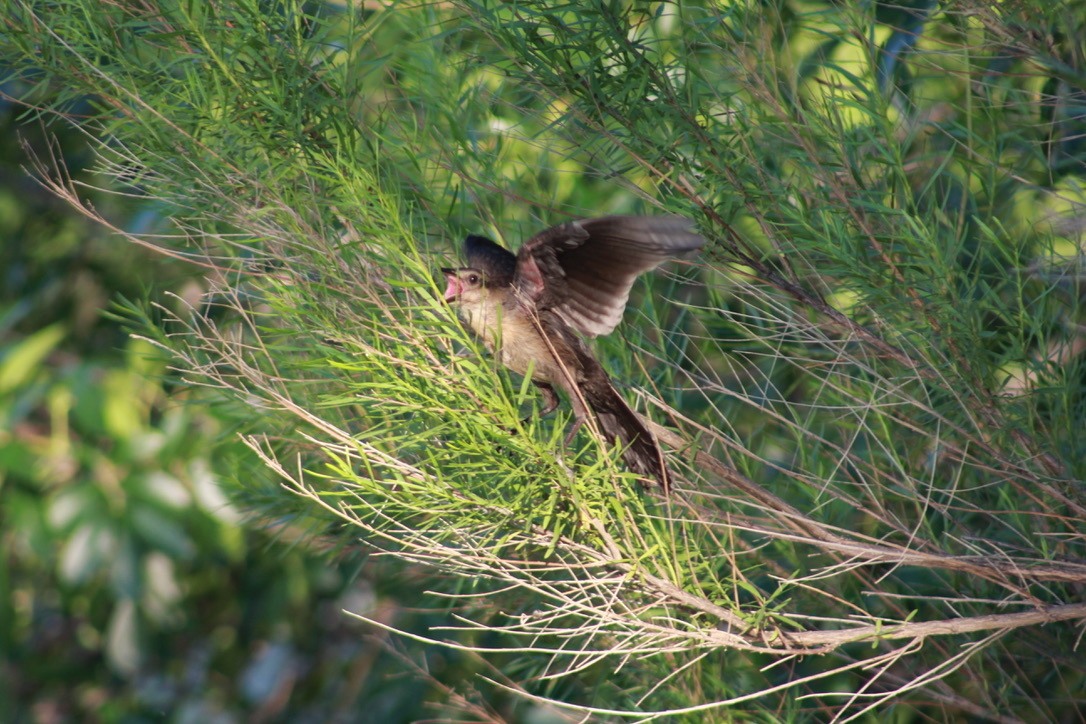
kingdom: Animalia
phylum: Chordata
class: Aves
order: Passeriformes
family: Icteridae
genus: Quiscalus
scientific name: Quiscalus mexicanus
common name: Great-tailed grackle
